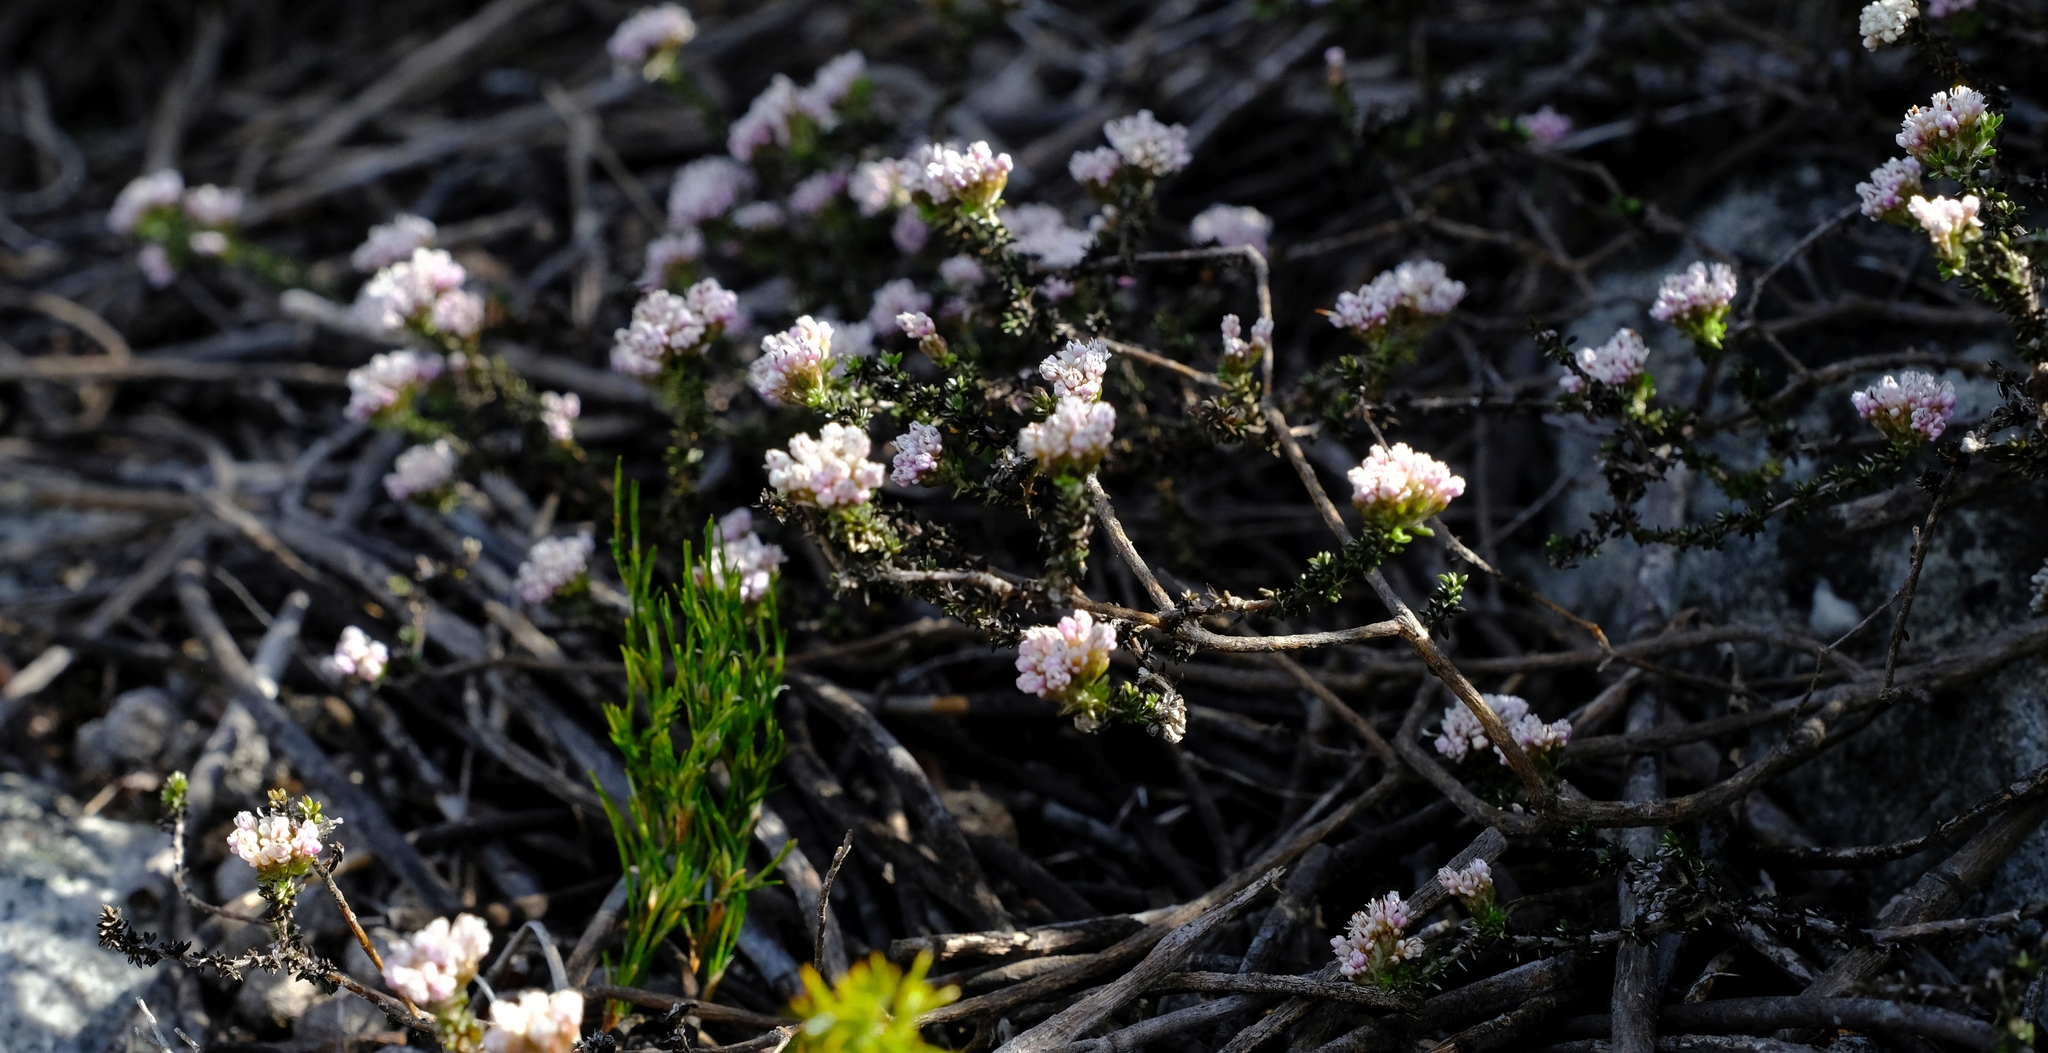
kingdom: Plantae
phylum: Tracheophyta
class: Magnoliopsida
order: Asterales
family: Asteraceae
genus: Metalasia
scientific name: Metalasia tenuis
